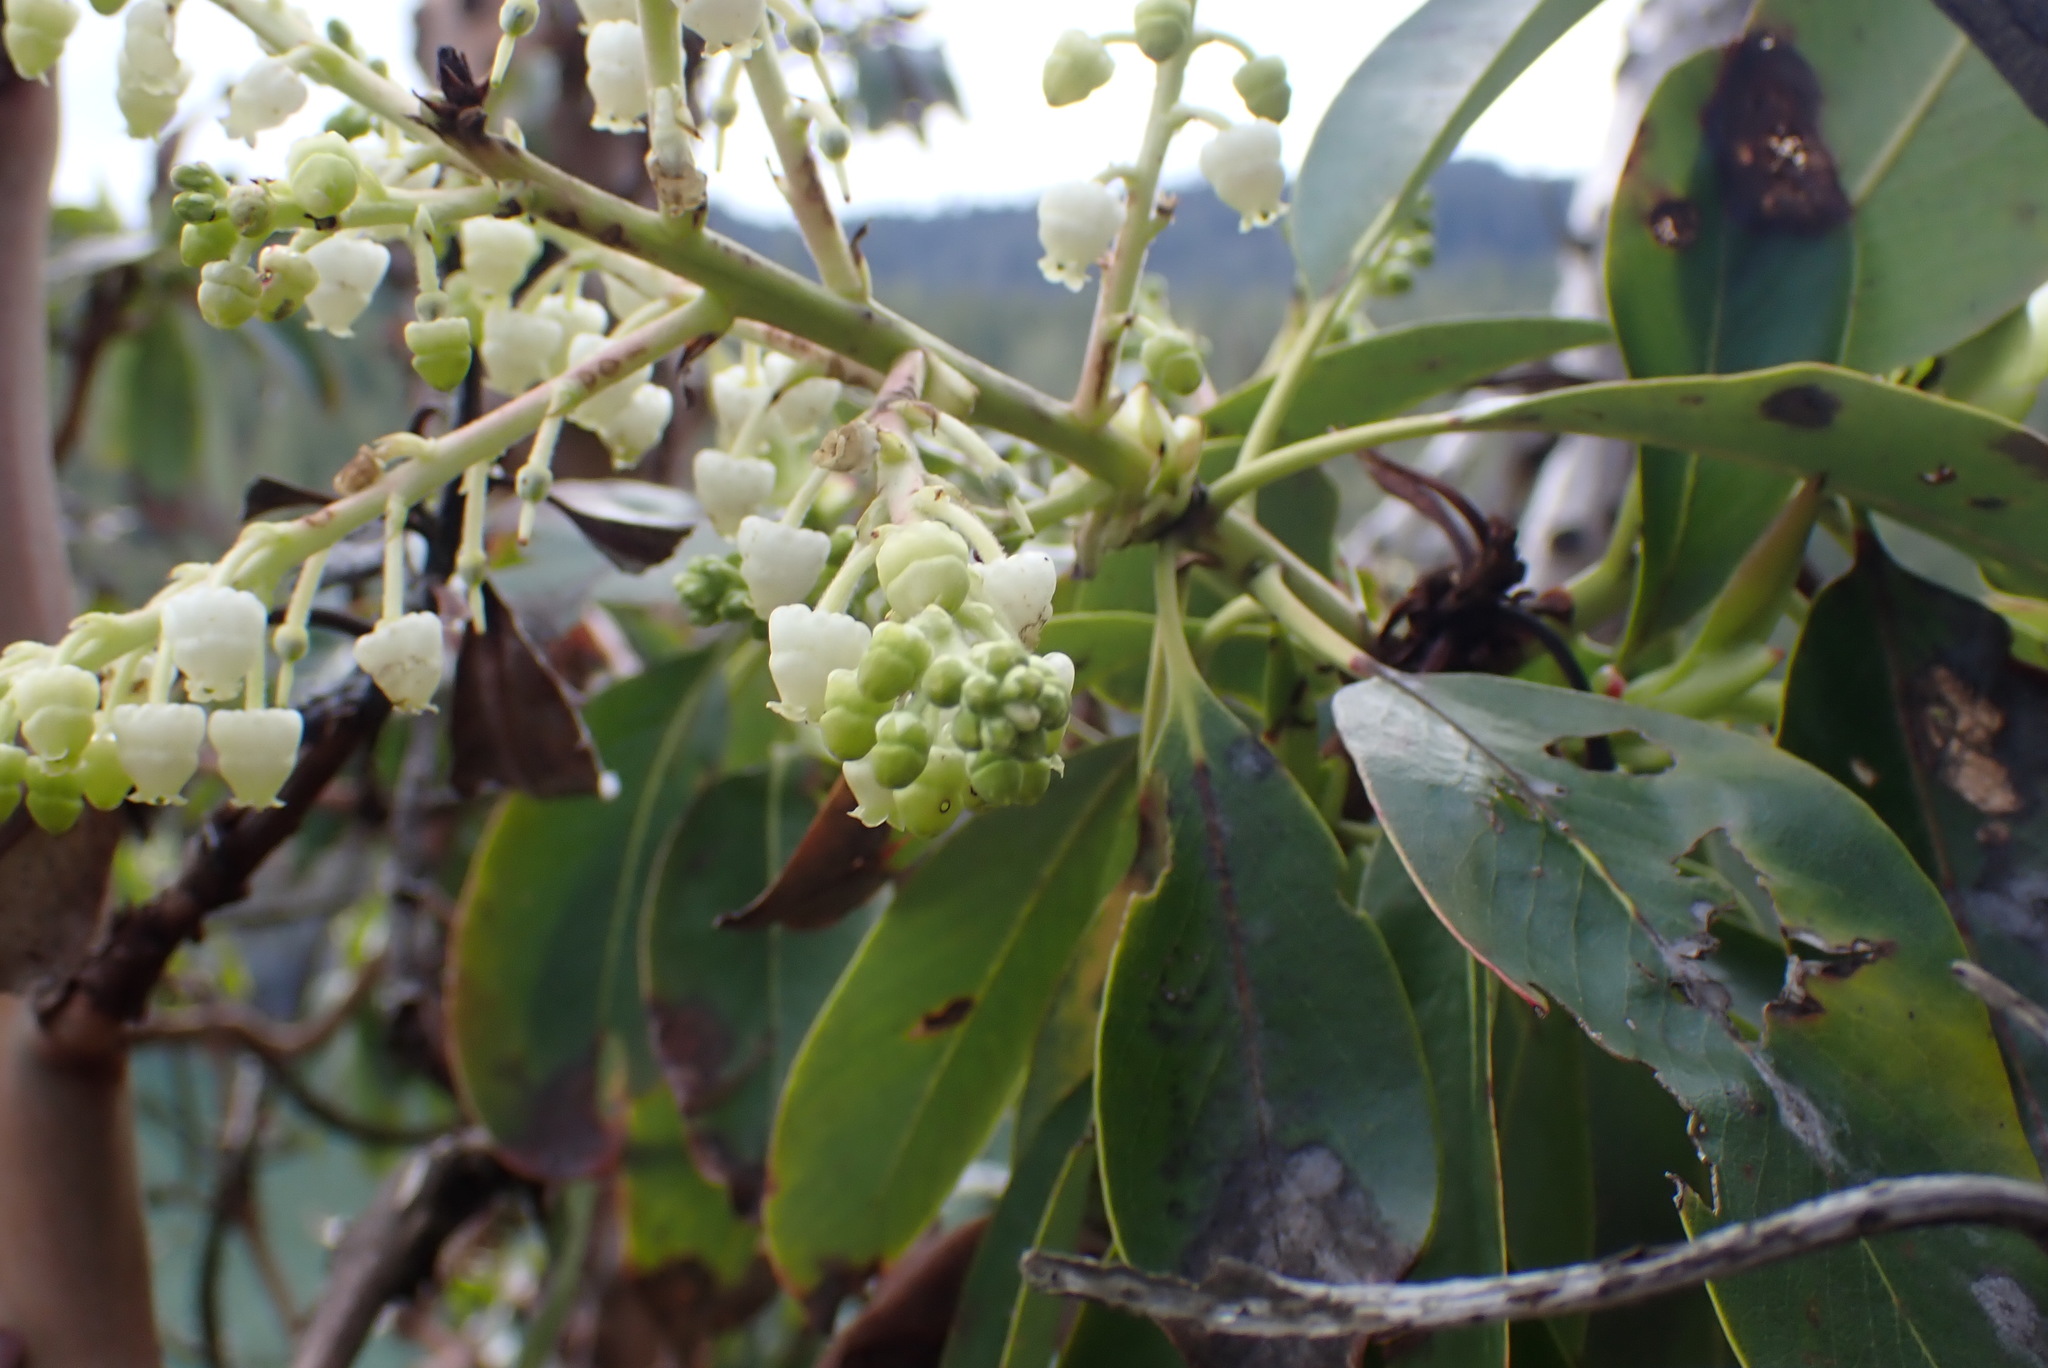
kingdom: Plantae
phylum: Tracheophyta
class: Magnoliopsida
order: Ericales
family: Ericaceae
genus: Arbutus
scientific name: Arbutus menziesii
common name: Pacific madrone
